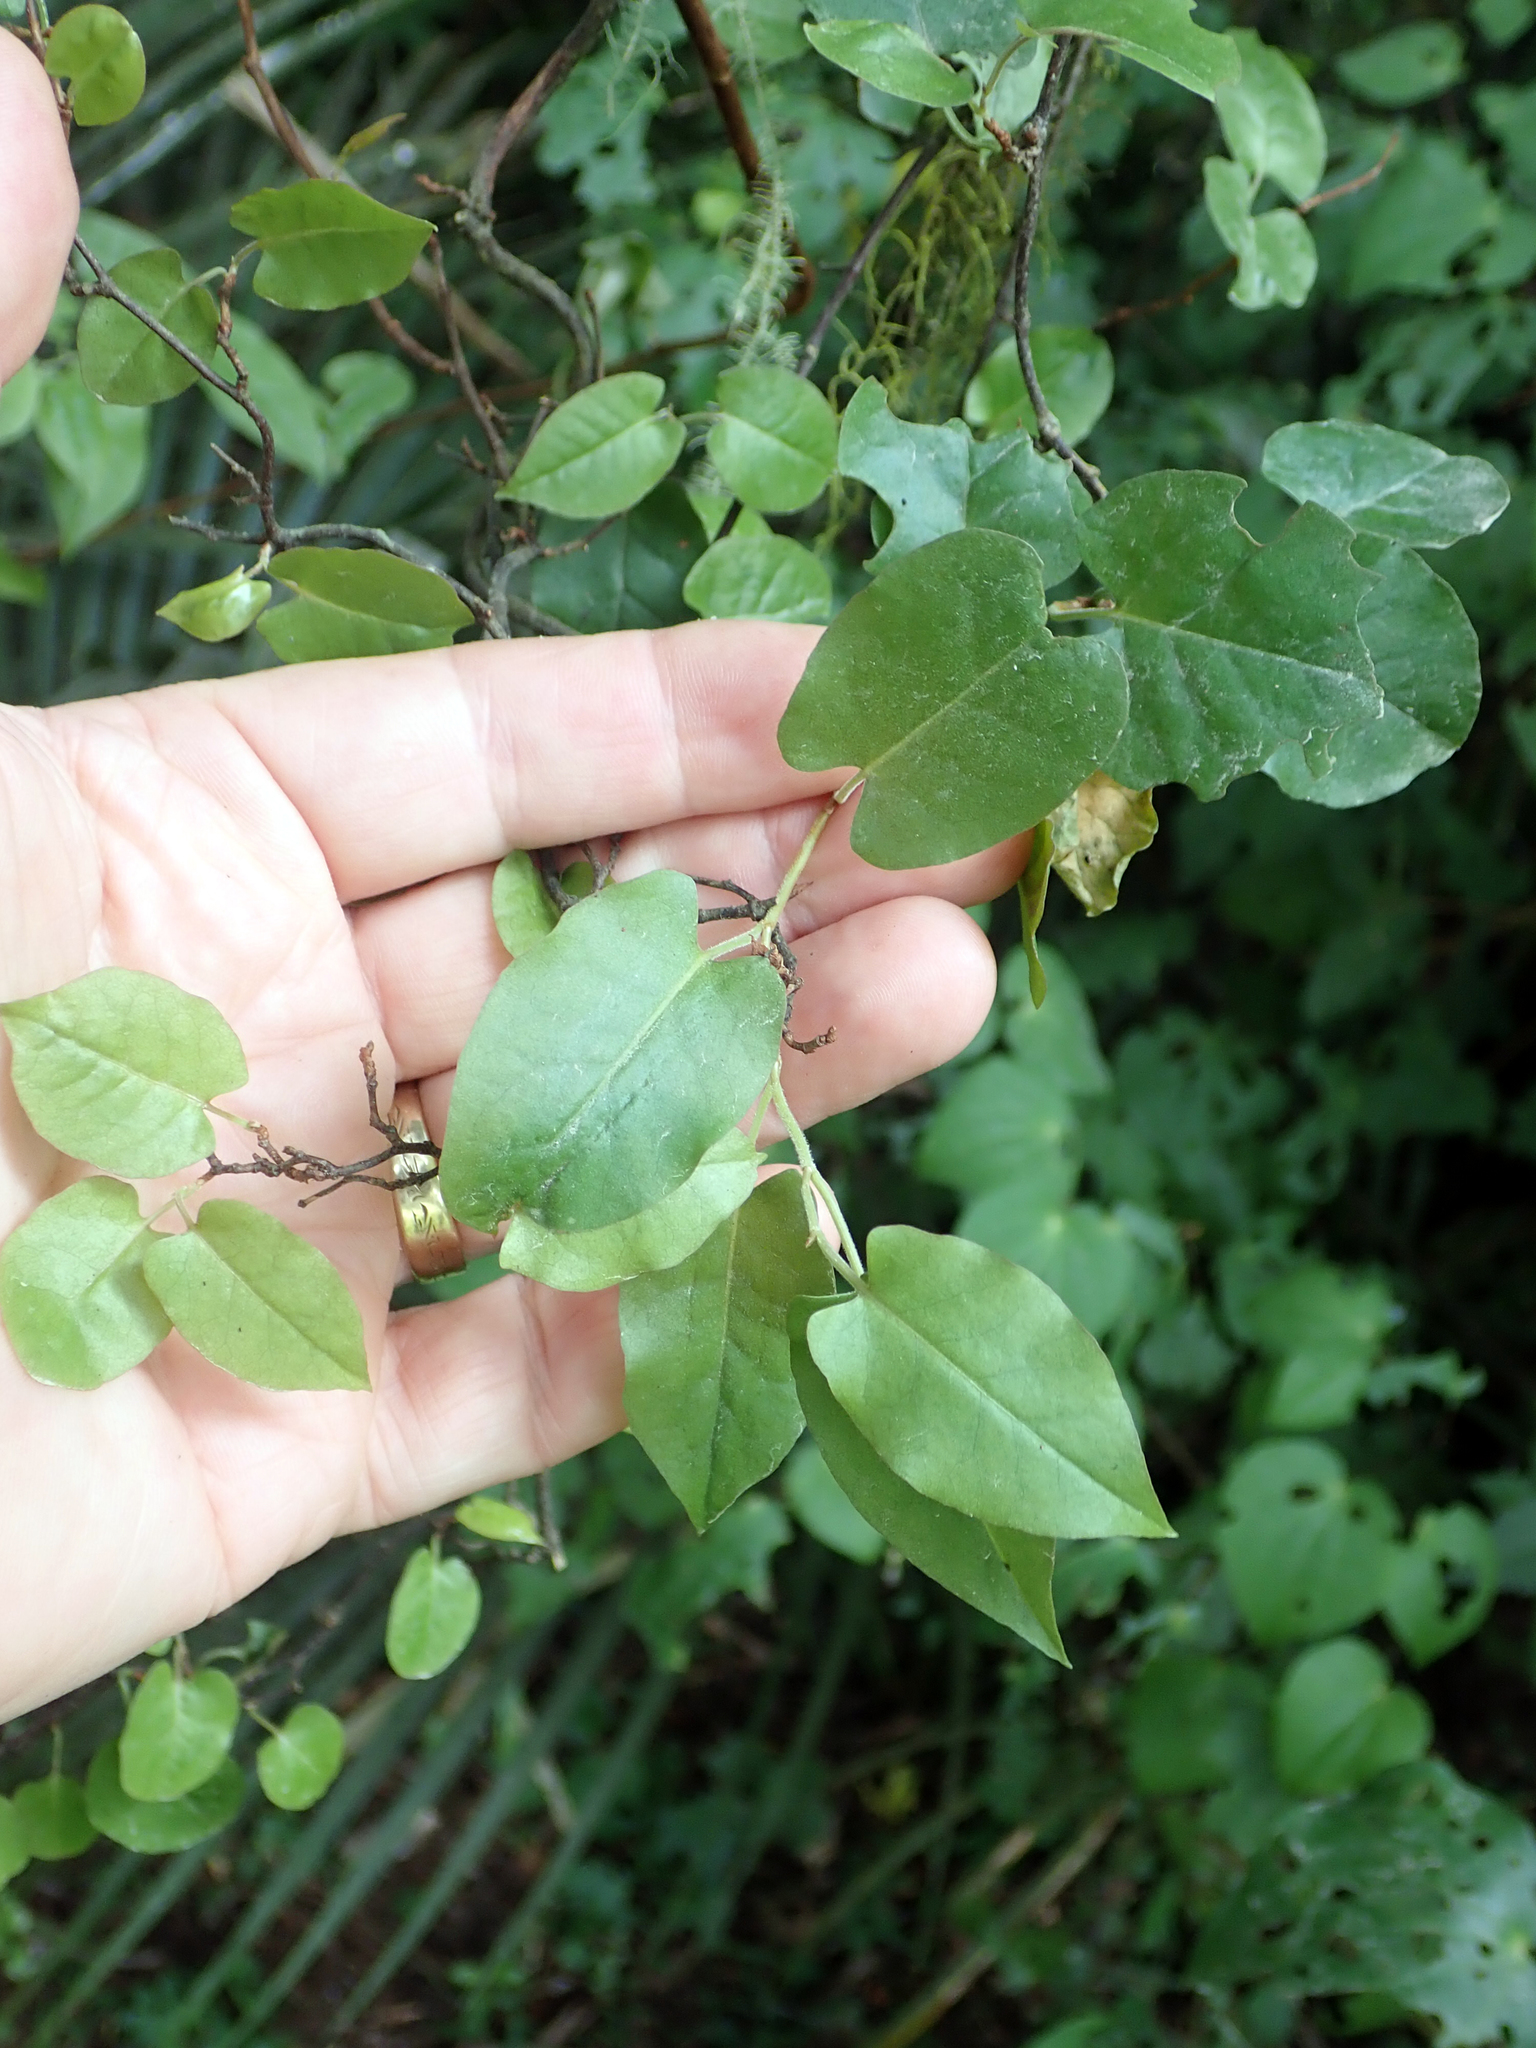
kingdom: Plantae
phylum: Tracheophyta
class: Magnoliopsida
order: Caryophyllales
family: Polygonaceae
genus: Muehlenbeckia
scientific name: Muehlenbeckia australis
